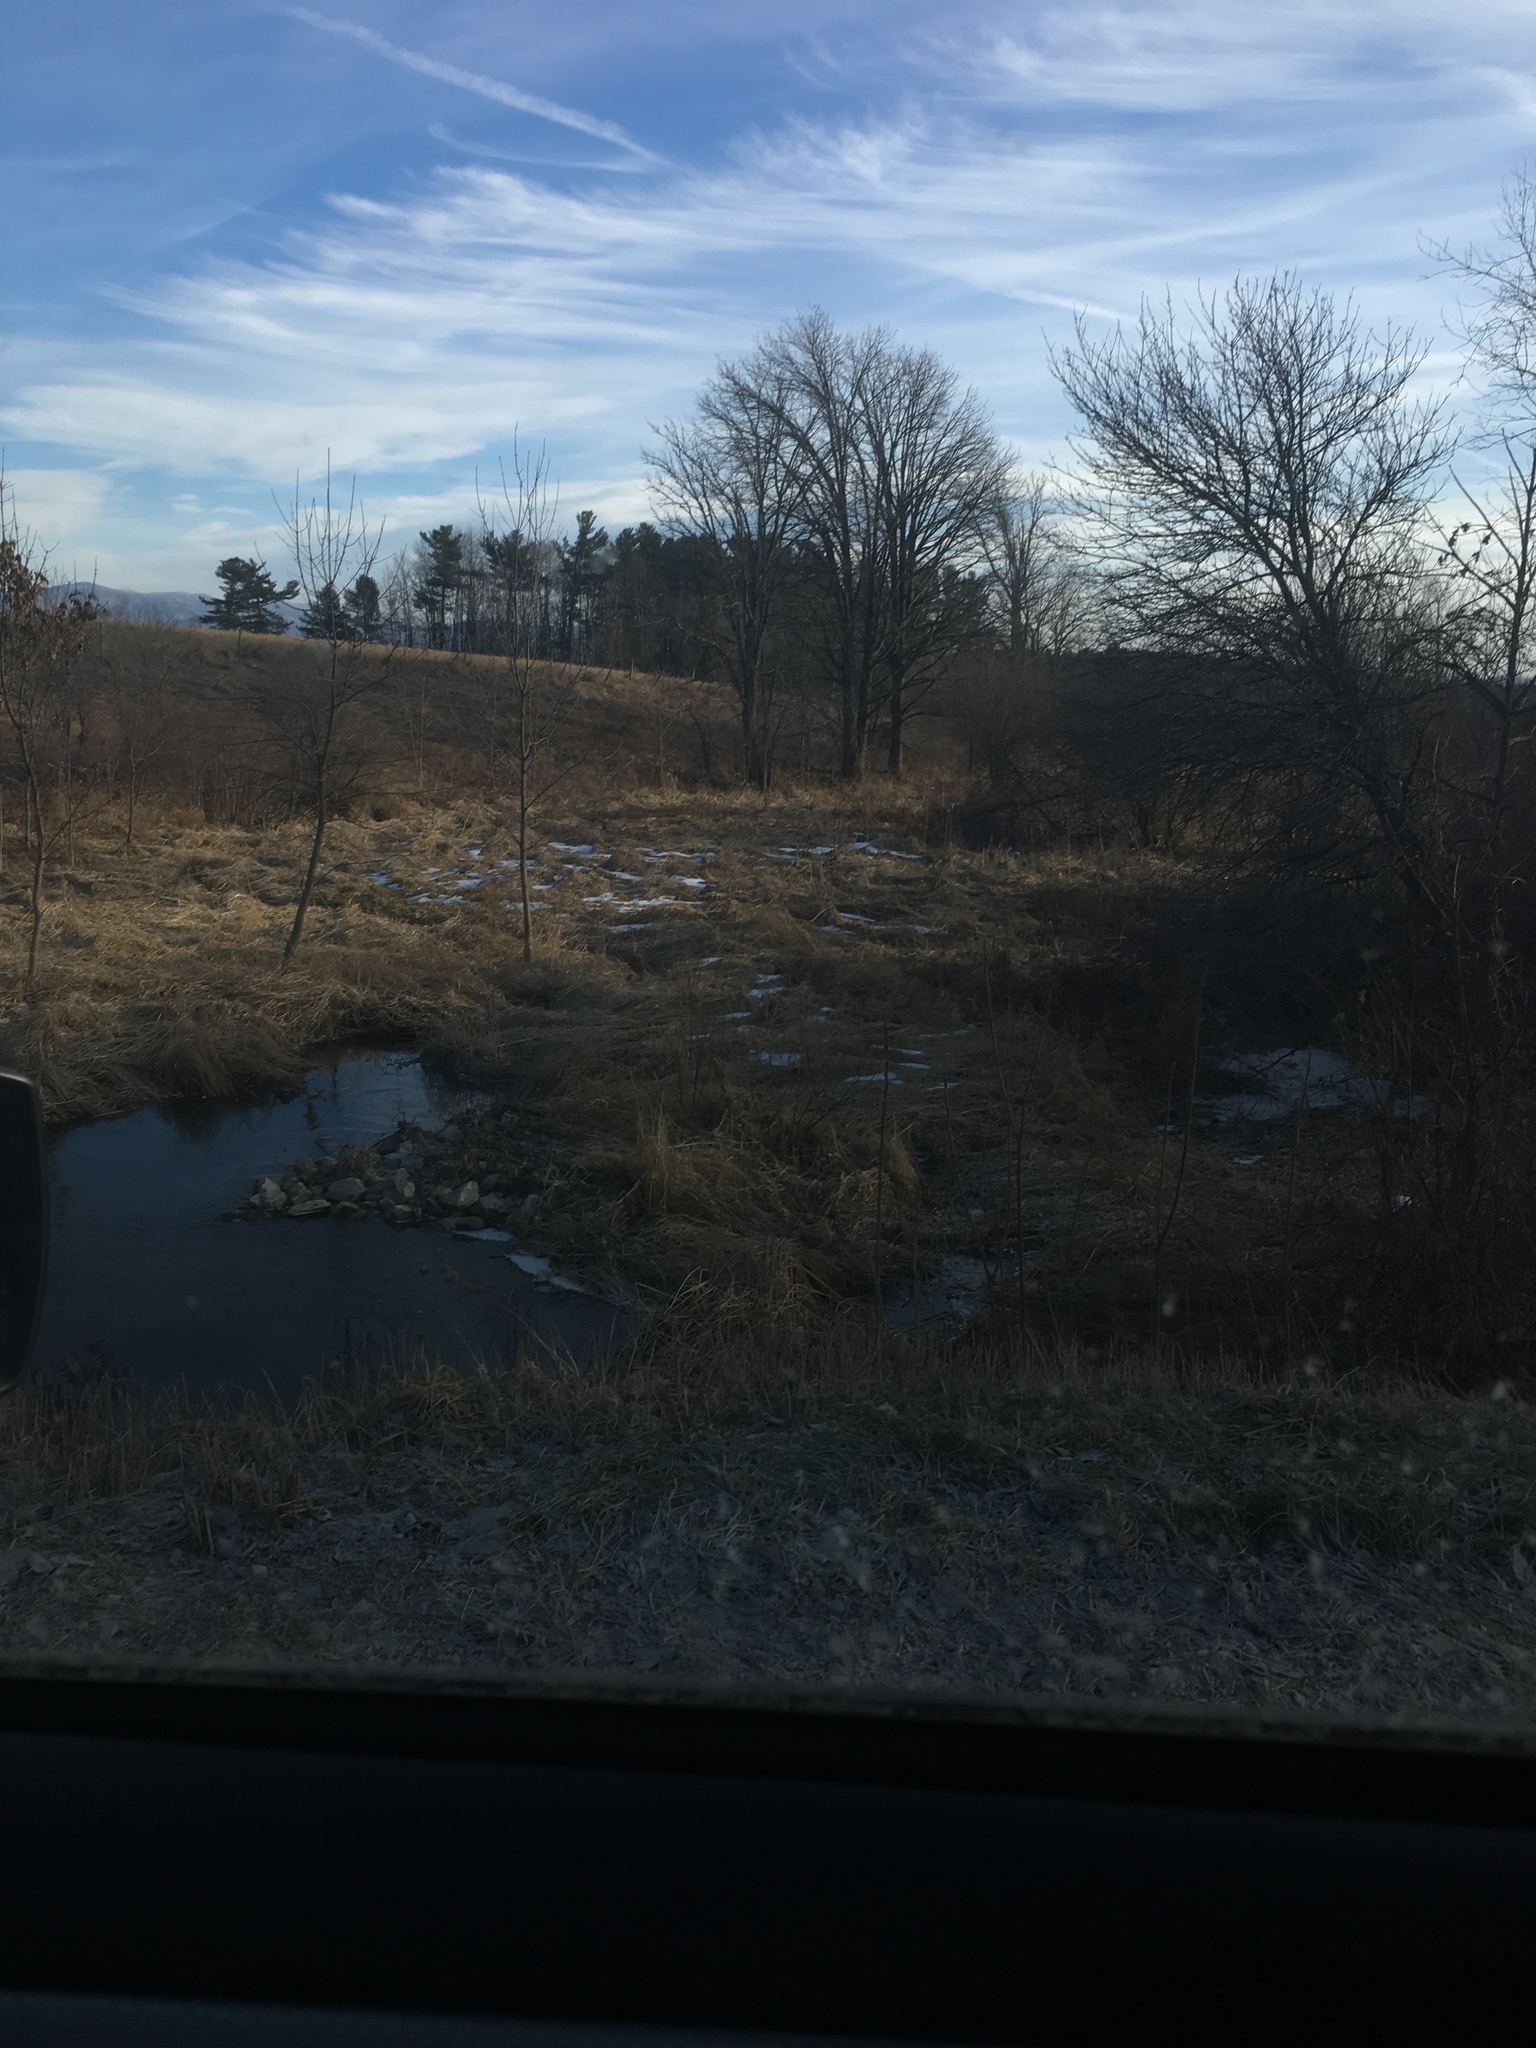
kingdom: Plantae
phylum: Tracheophyta
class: Pinopsida
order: Pinales
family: Pinaceae
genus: Pinus
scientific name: Pinus strobus
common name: Weymouth pine
